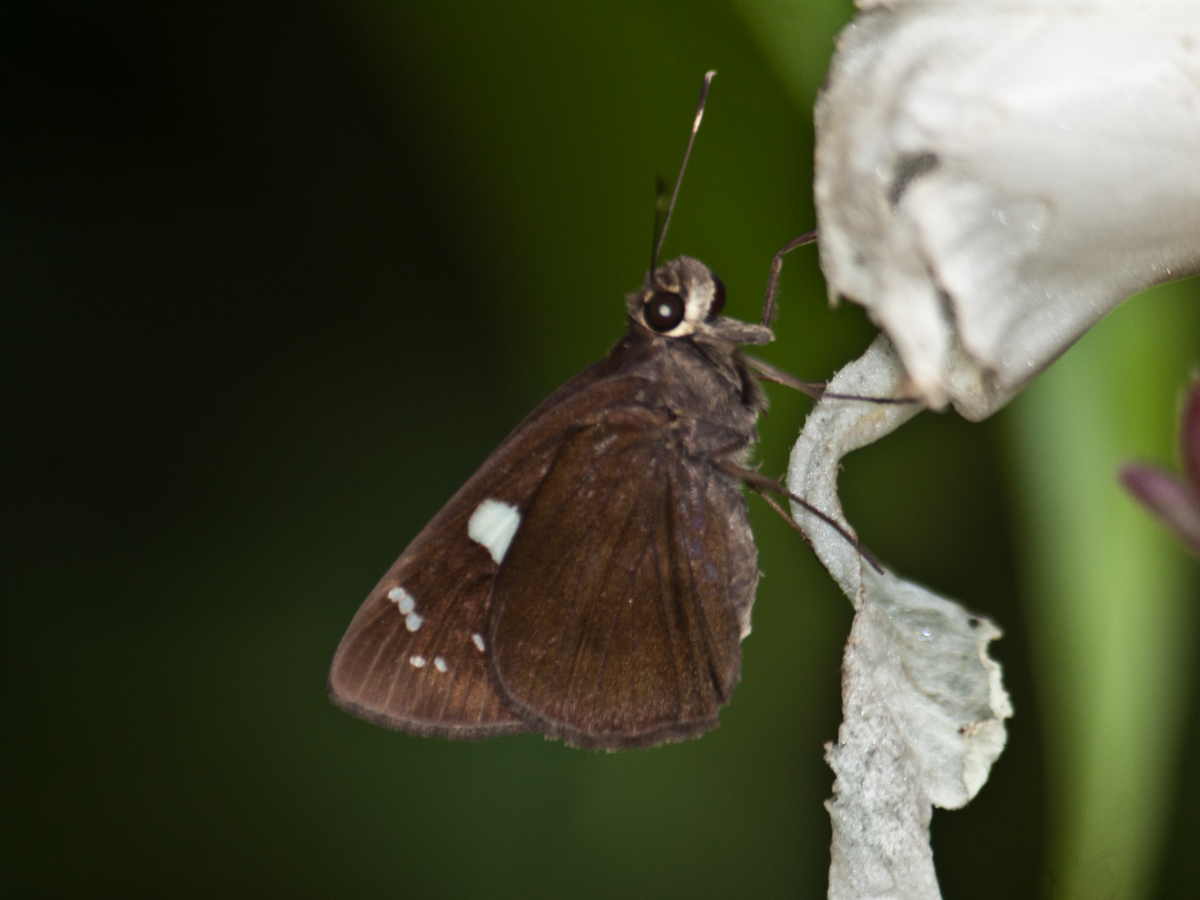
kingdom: Animalia
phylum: Arthropoda
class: Insecta
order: Lepidoptera
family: Hesperiidae
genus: Notocrypta
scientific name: Notocrypta curvifascia
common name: Restricted demon
